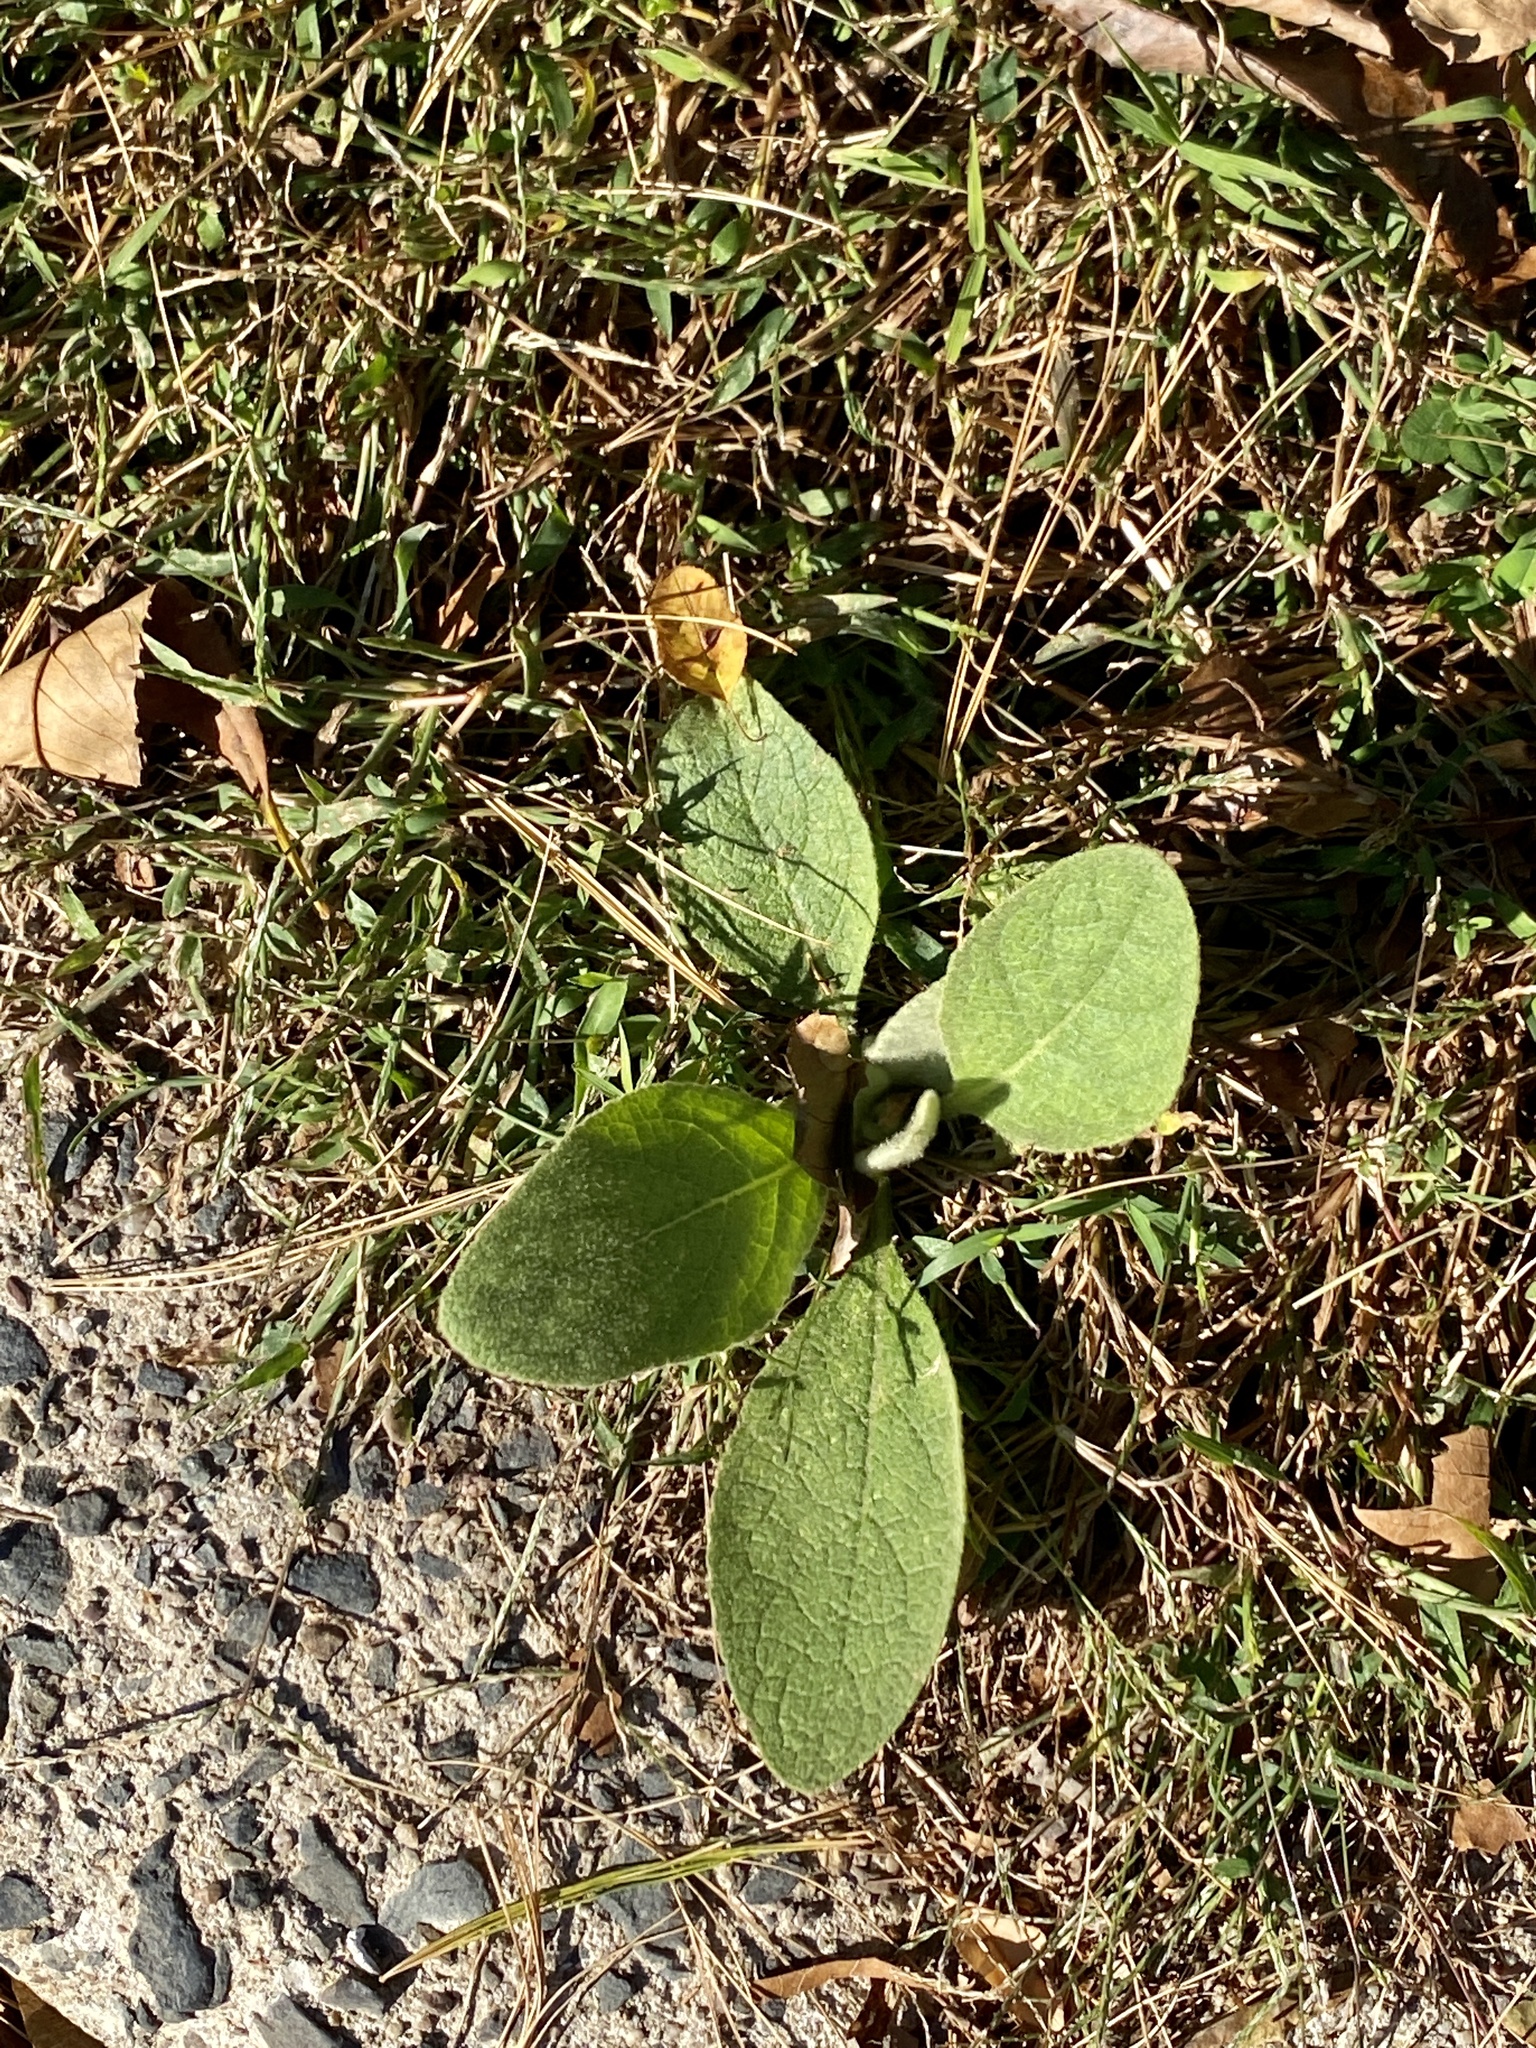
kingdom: Plantae
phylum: Tracheophyta
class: Magnoliopsida
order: Lamiales
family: Scrophulariaceae
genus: Verbascum
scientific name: Verbascum thapsus
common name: Common mullein
